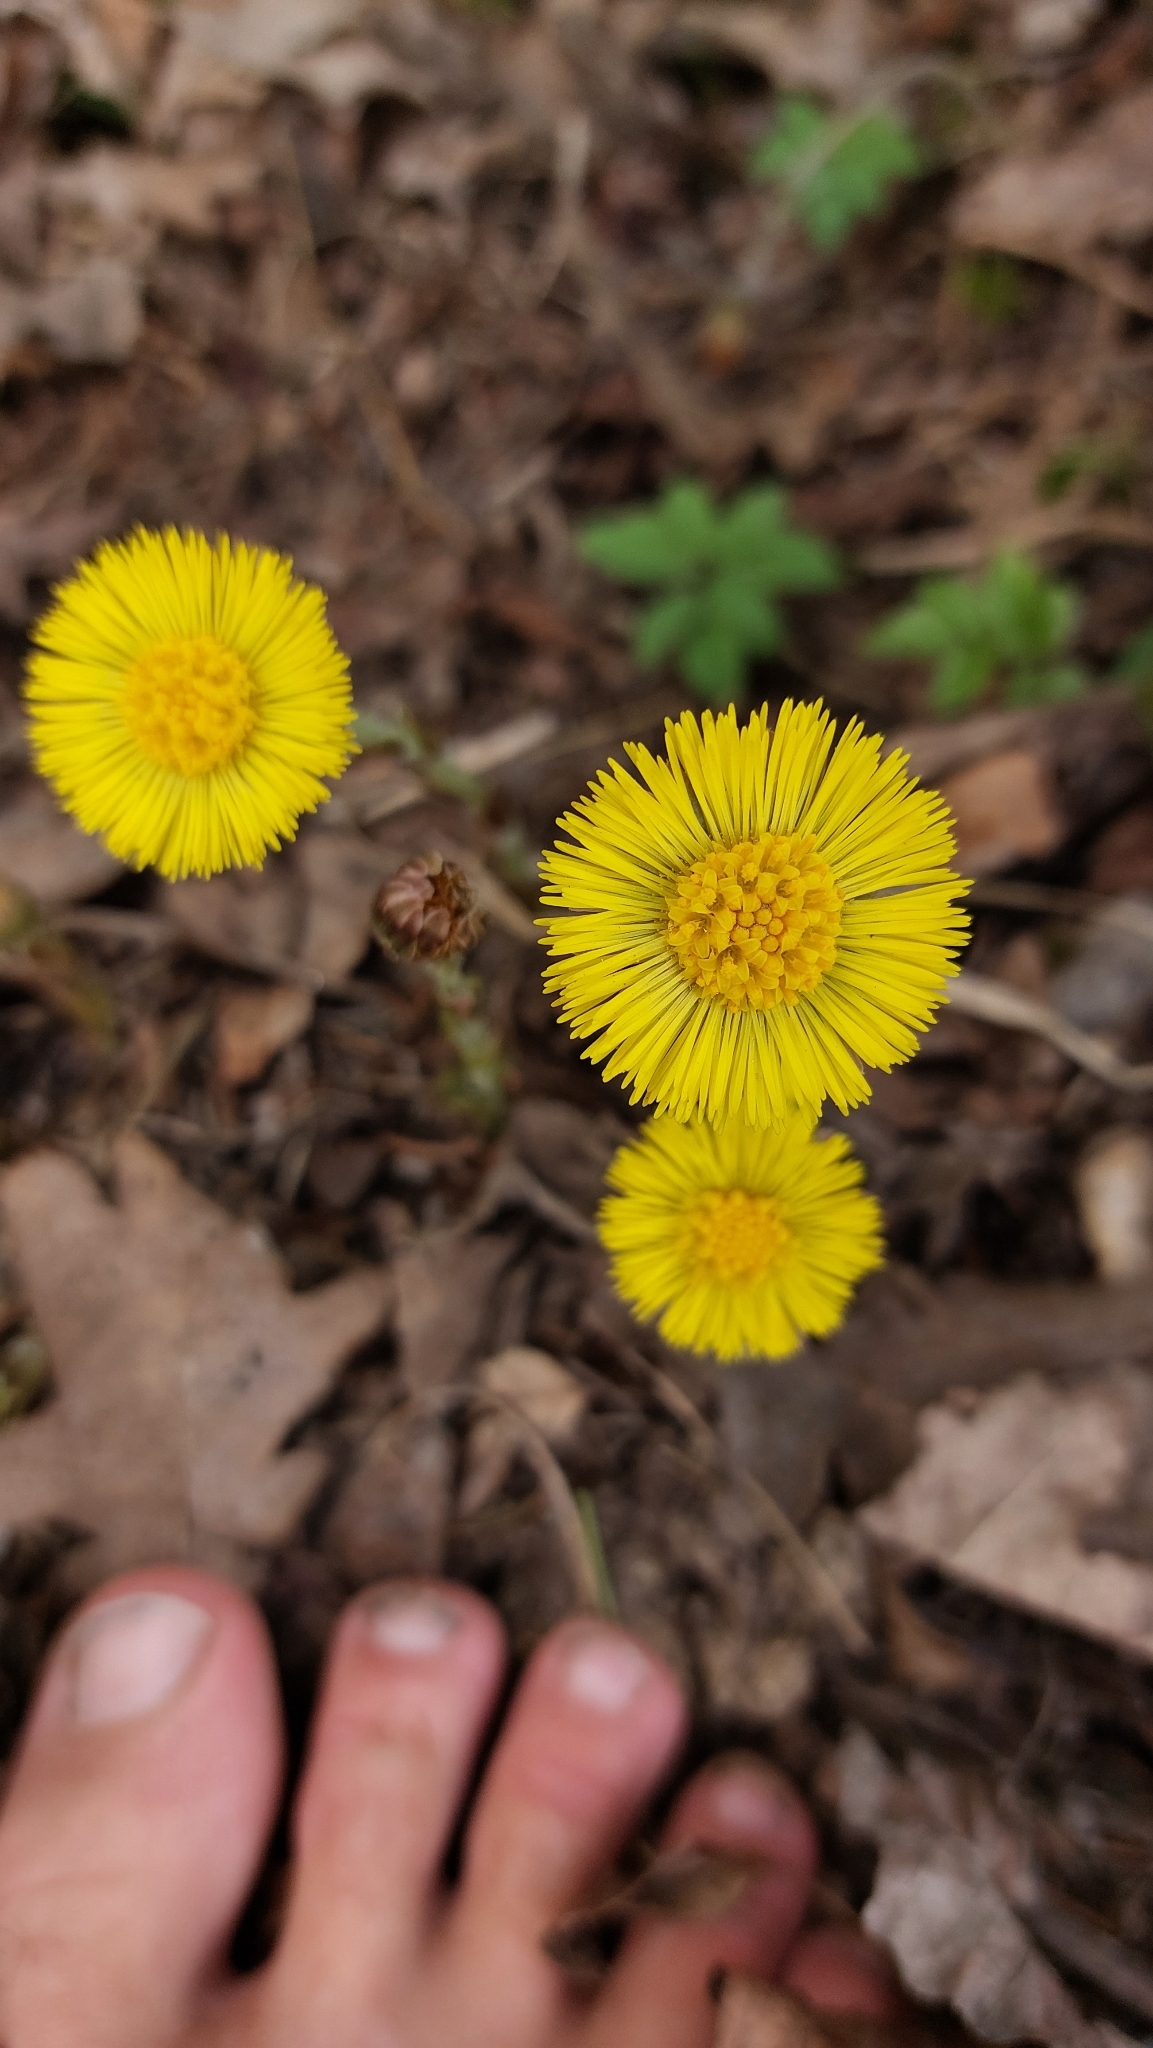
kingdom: Plantae
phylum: Tracheophyta
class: Magnoliopsida
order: Asterales
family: Asteraceae
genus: Tussilago
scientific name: Tussilago farfara
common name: Coltsfoot
